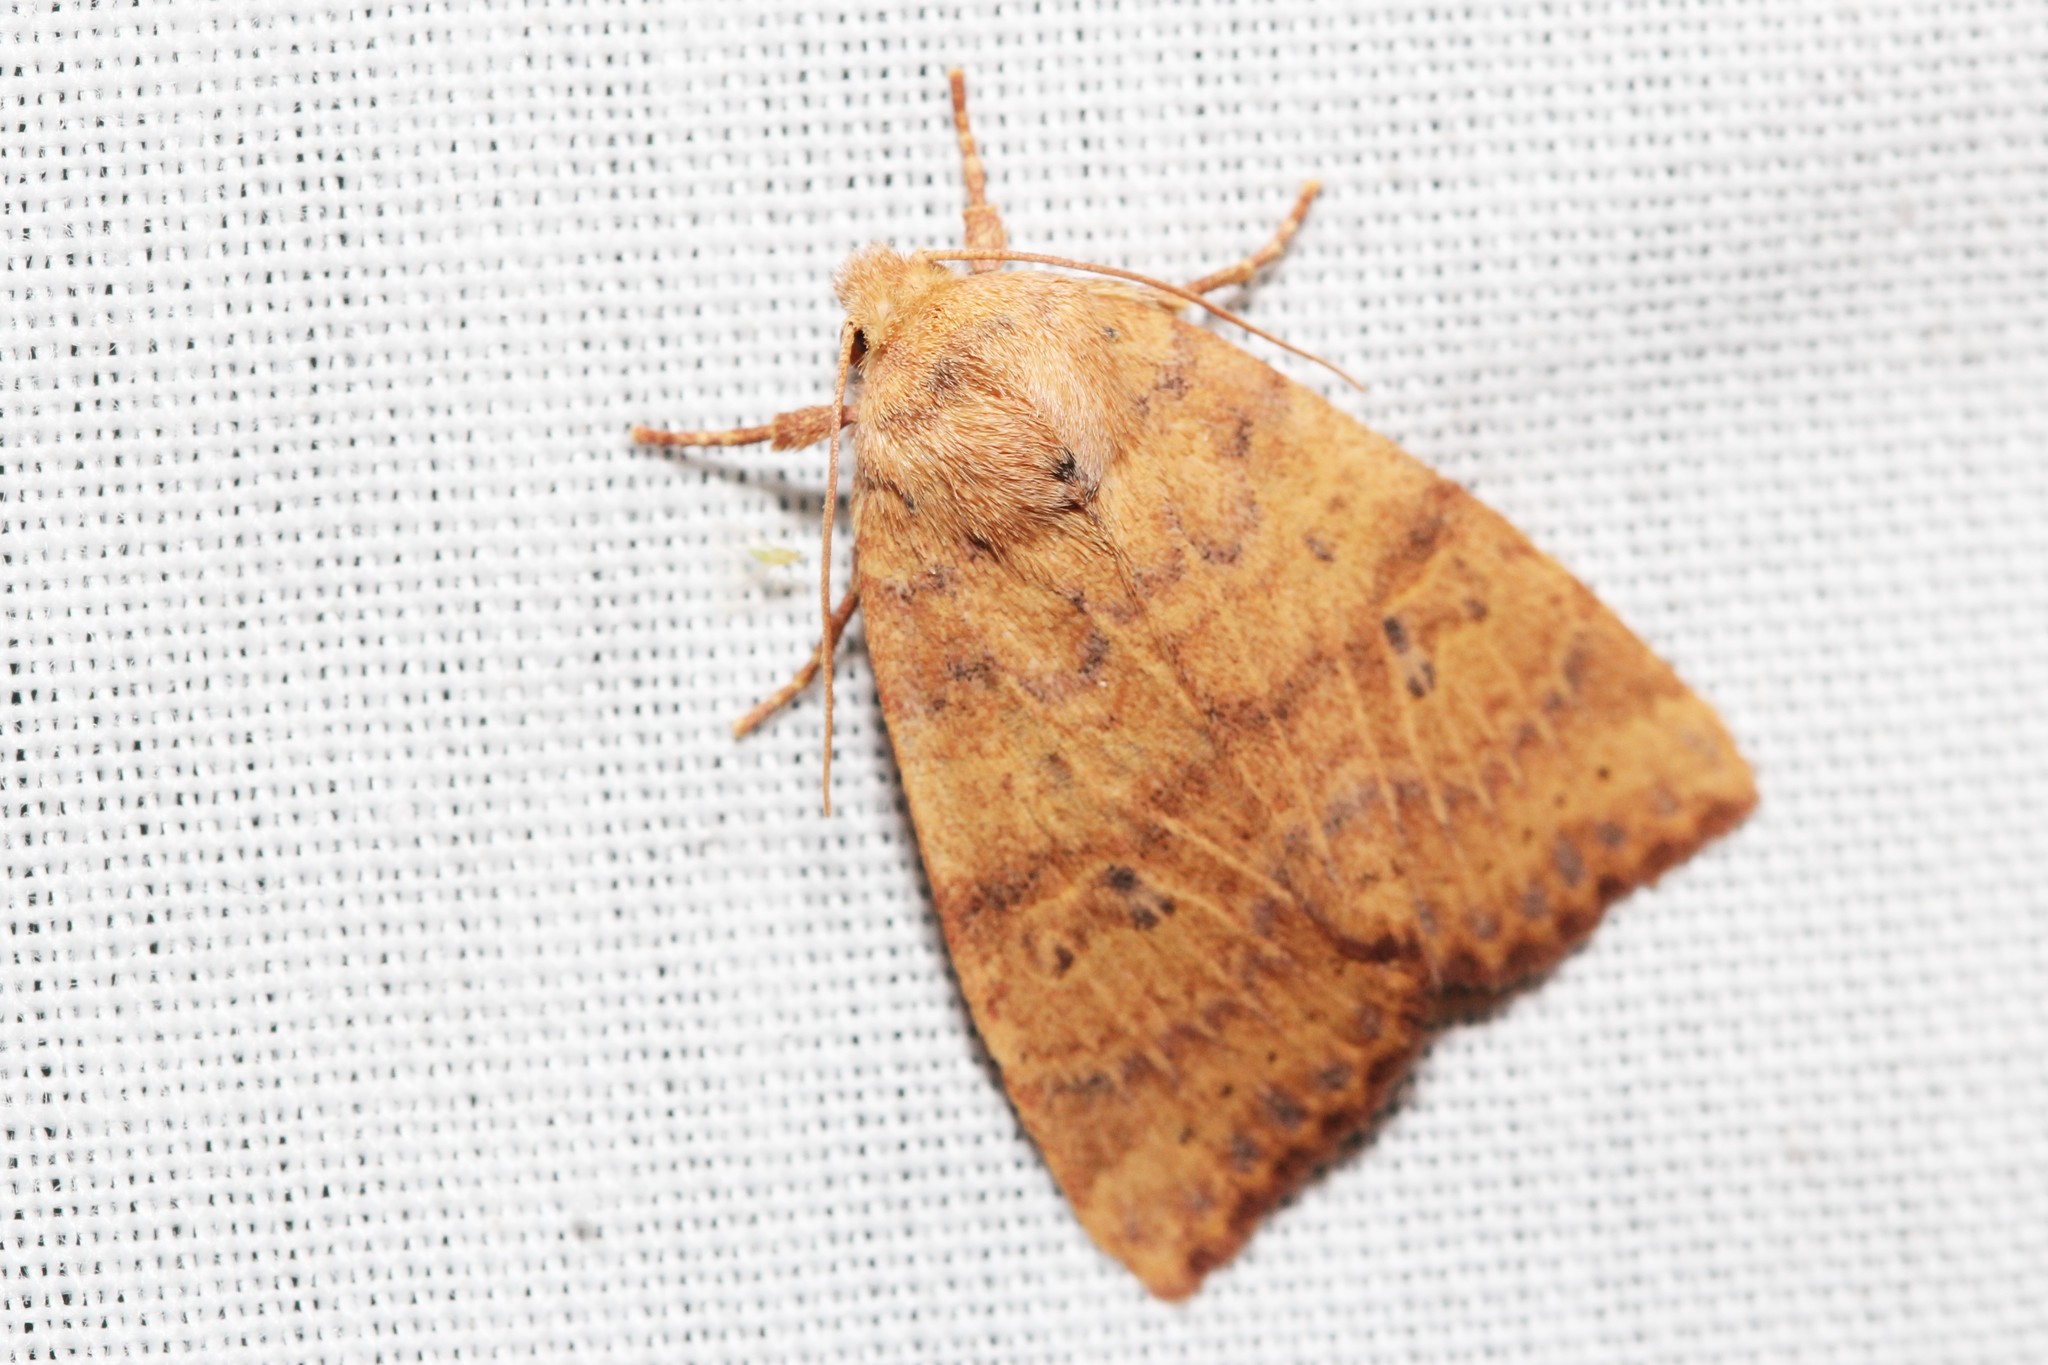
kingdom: Animalia
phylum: Arthropoda
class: Insecta
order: Lepidoptera
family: Noctuidae
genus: Anathix
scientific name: Anathix ralla
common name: Dotted sallow
